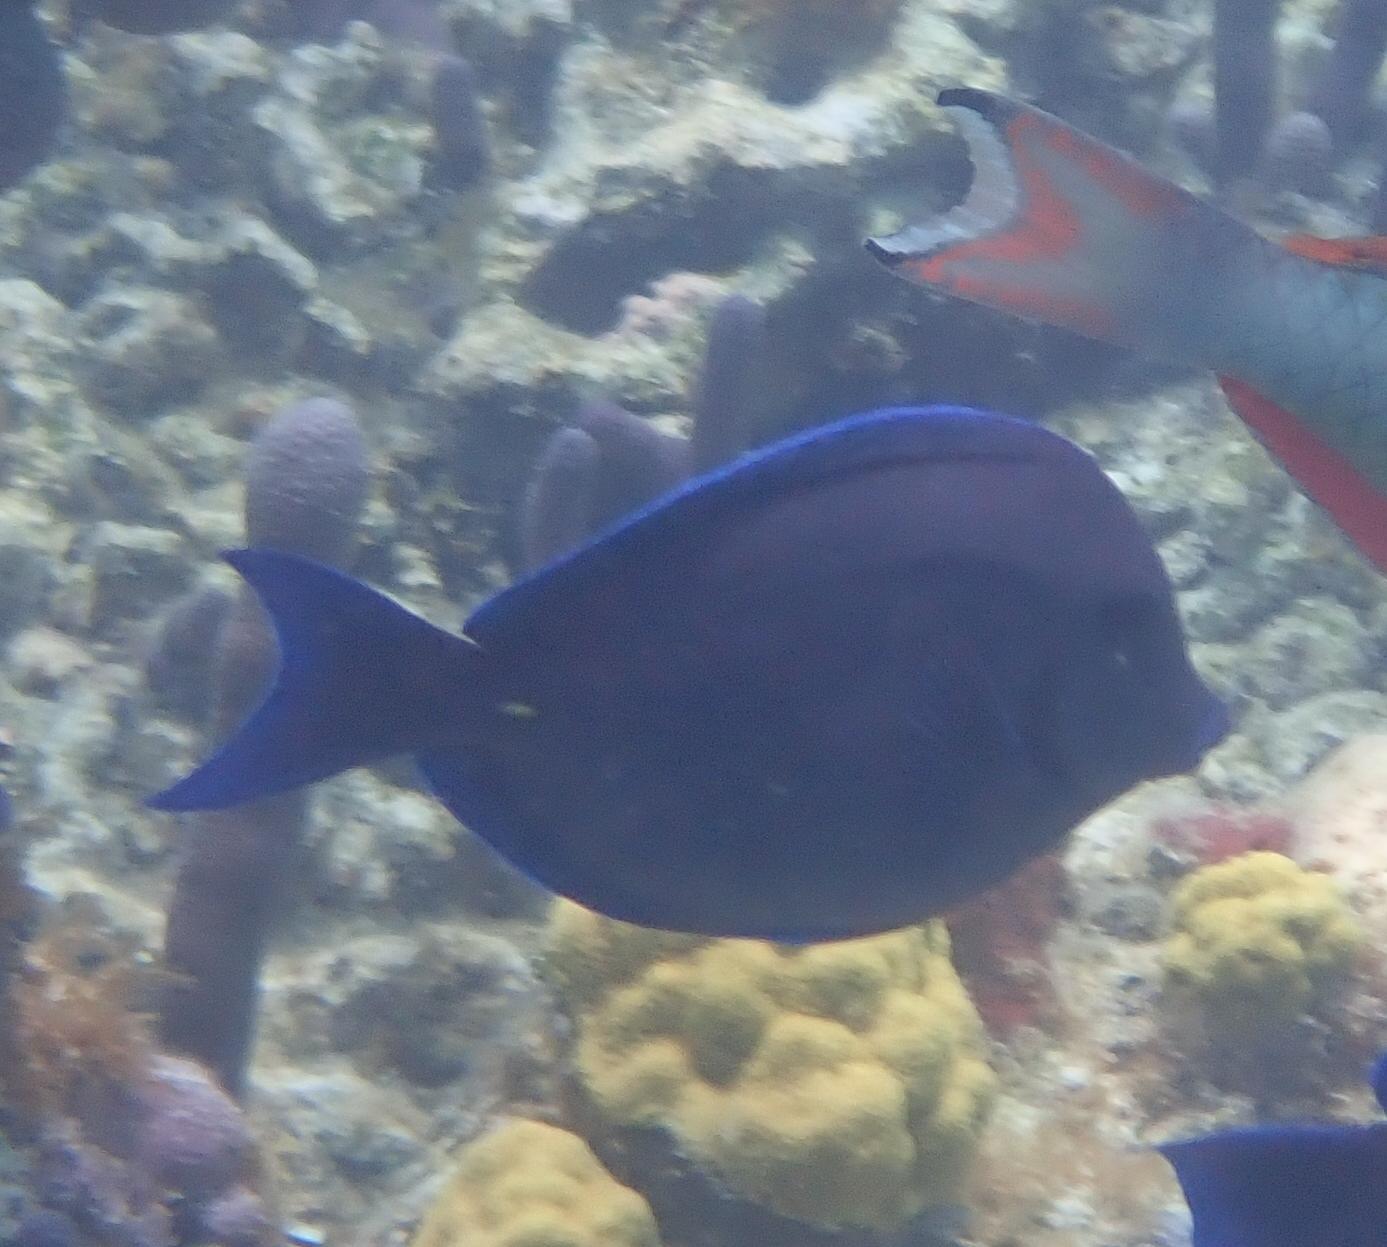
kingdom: Animalia
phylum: Chordata
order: Perciformes
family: Acanthuridae
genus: Acanthurus
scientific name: Acanthurus coeruleus
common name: Blue tang
